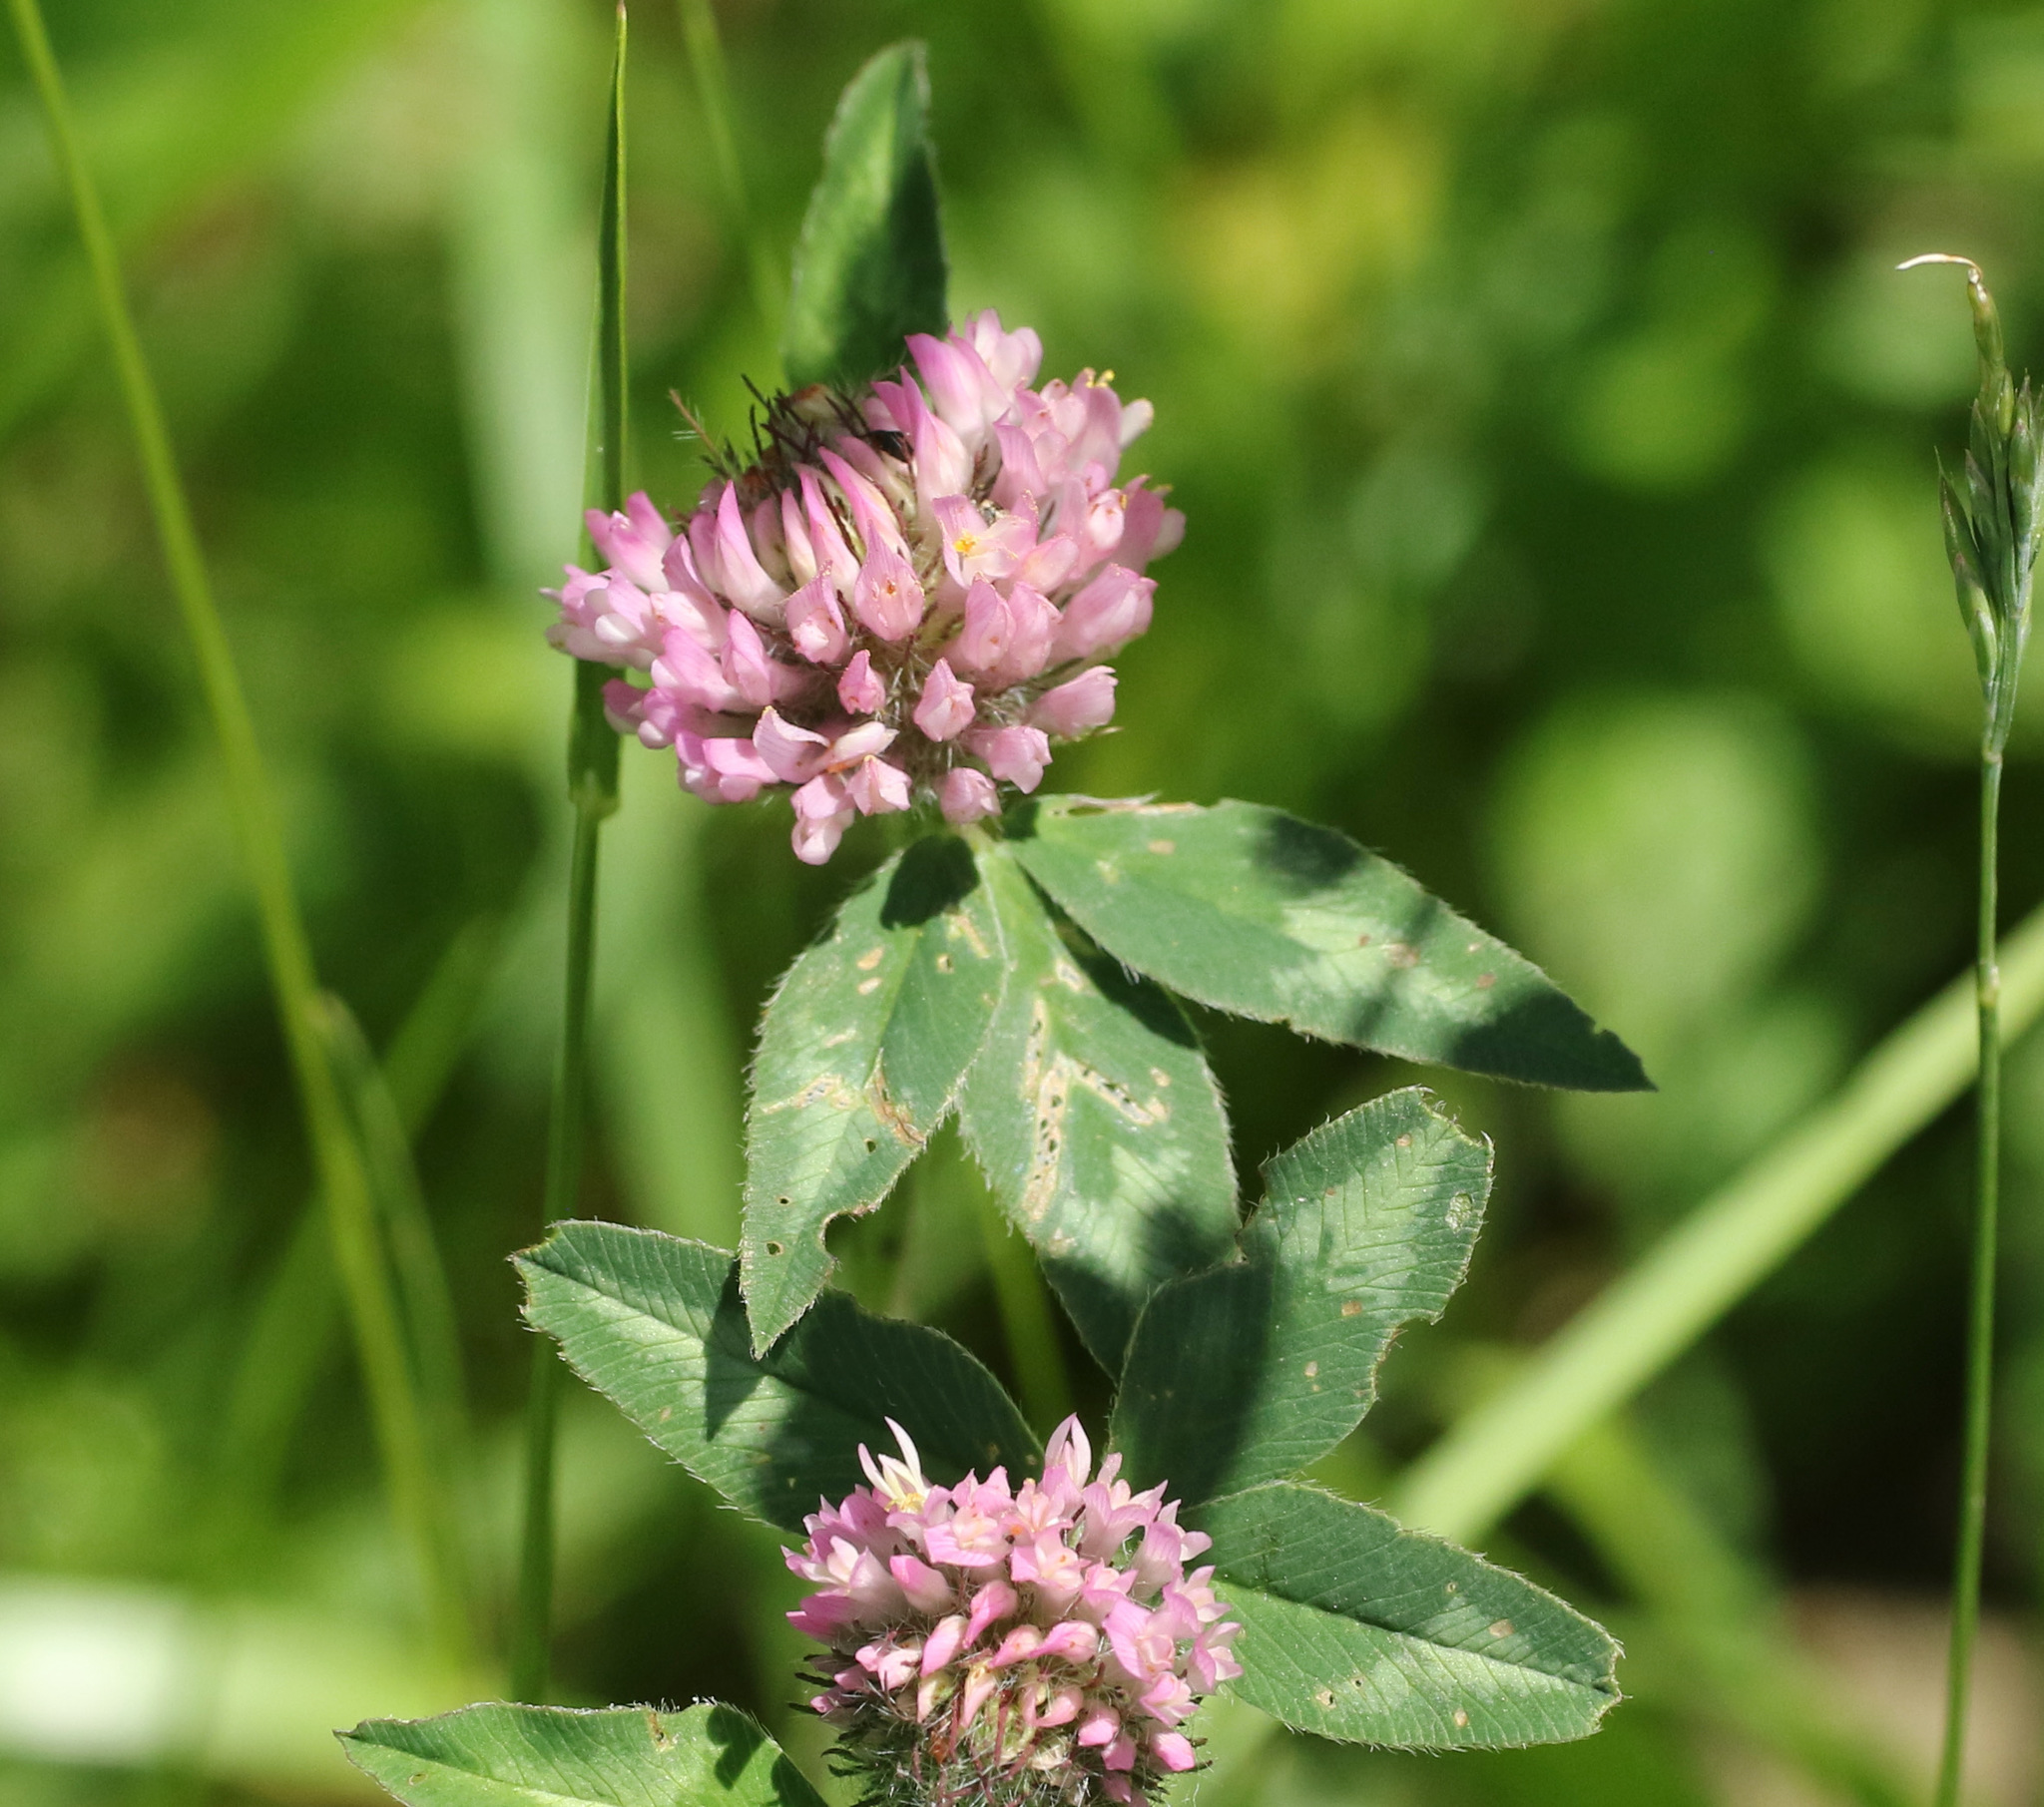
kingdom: Plantae
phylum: Tracheophyta
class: Magnoliopsida
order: Fabales
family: Fabaceae
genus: Trifolium
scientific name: Trifolium pratense
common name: Red clover
